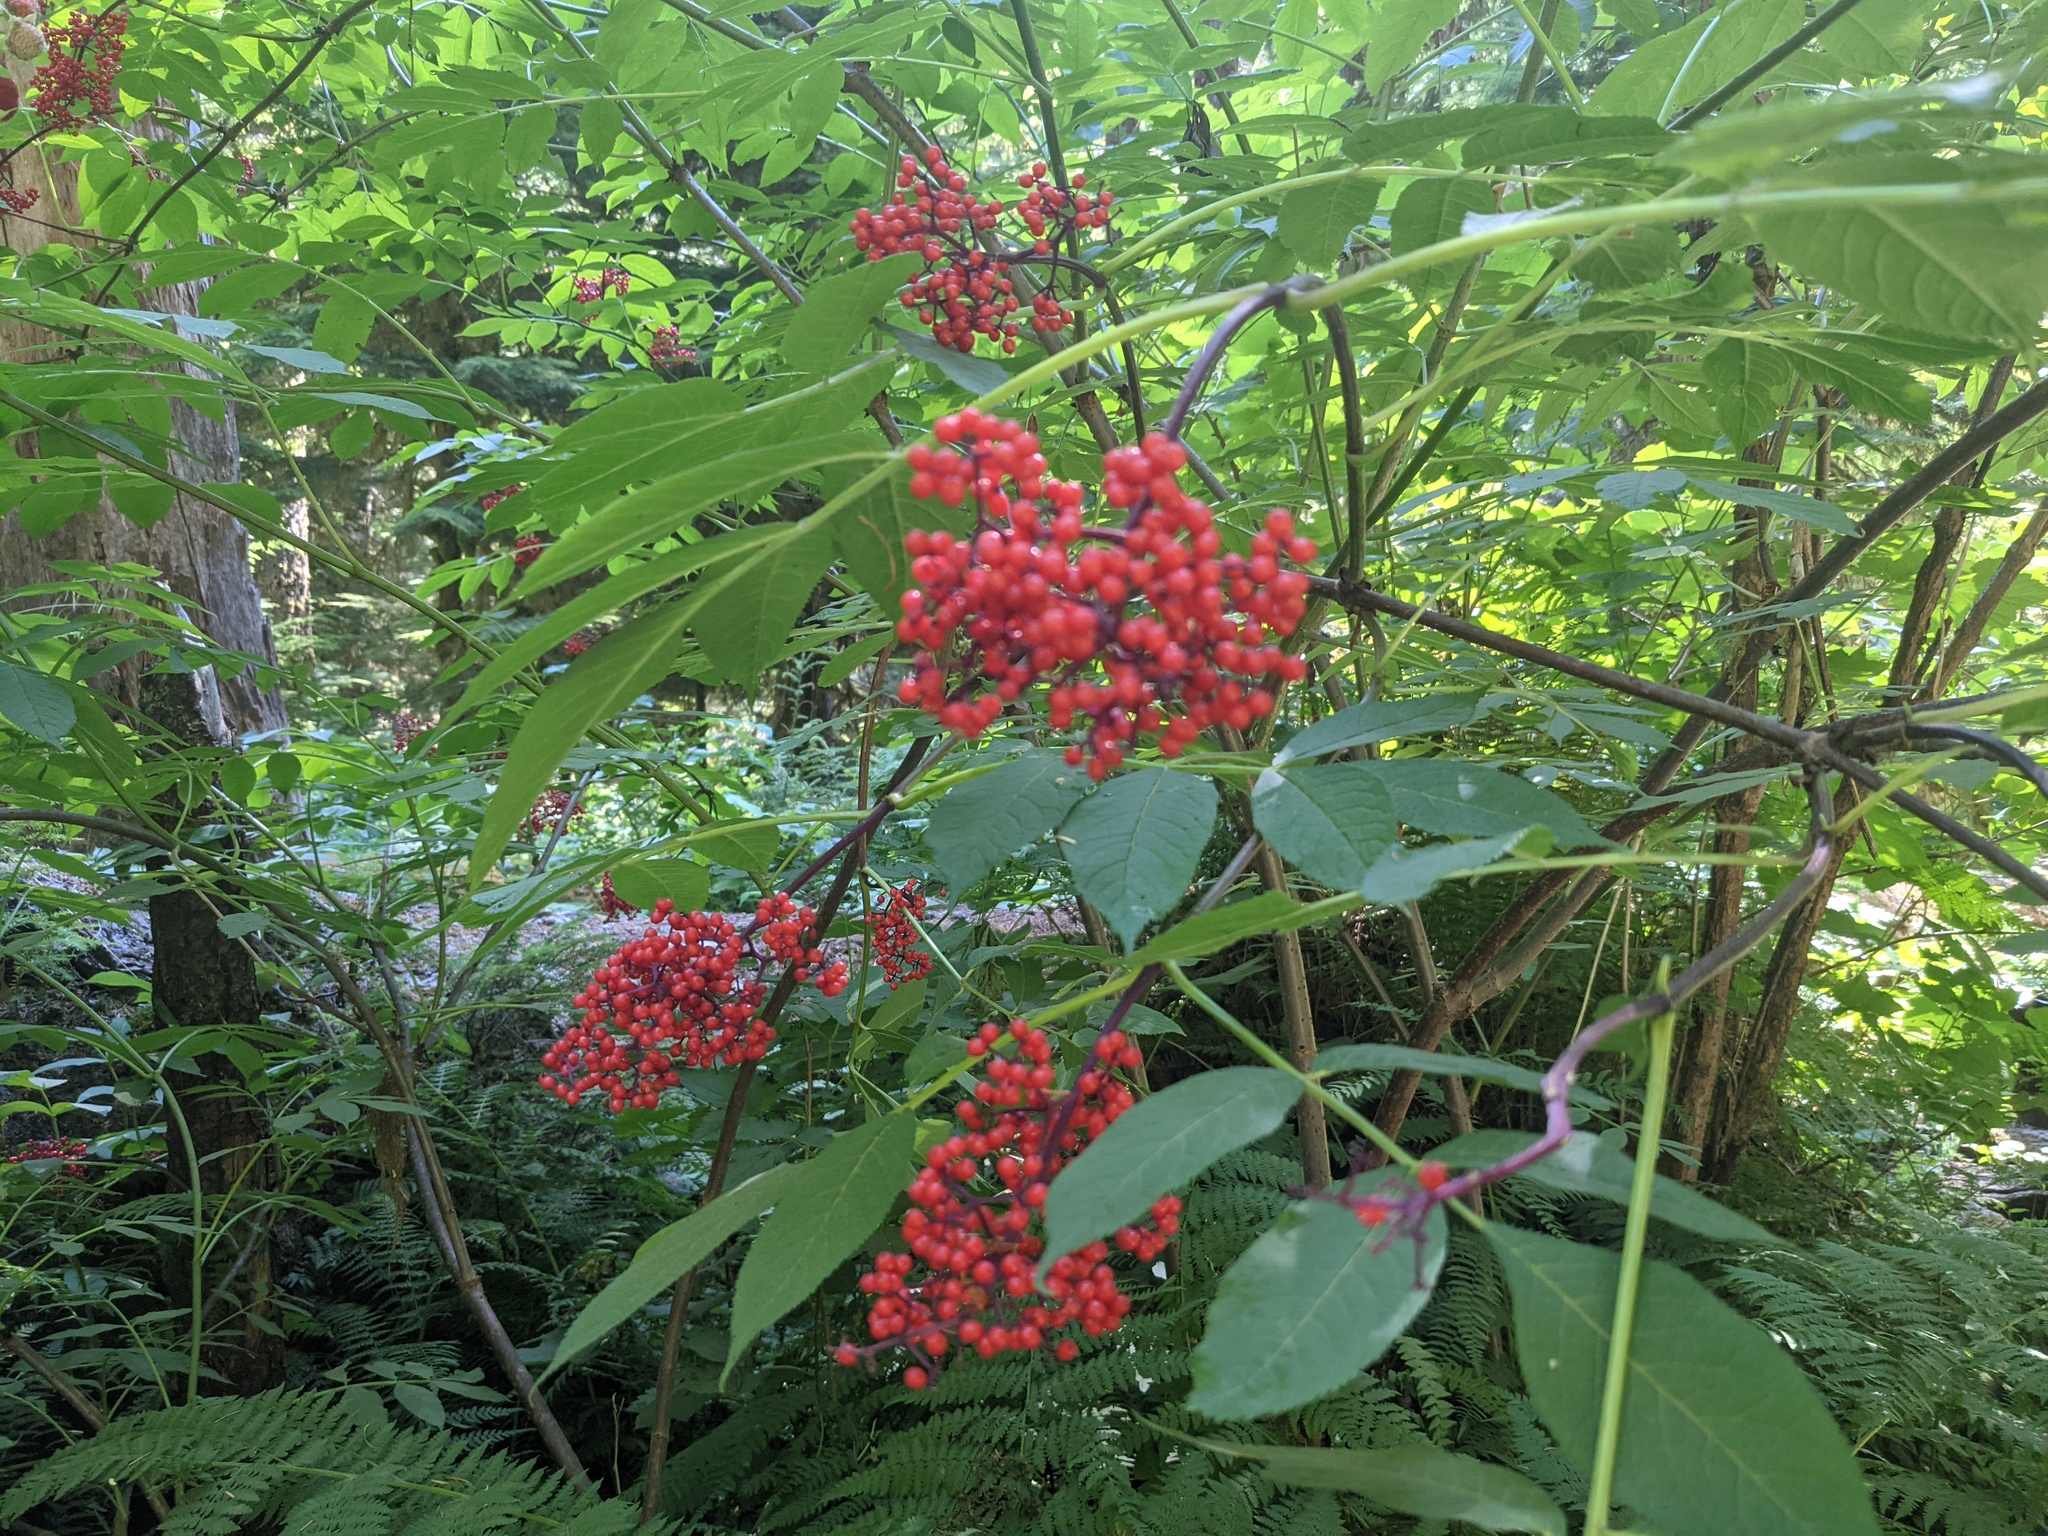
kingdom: Plantae
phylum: Tracheophyta
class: Magnoliopsida
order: Dipsacales
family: Viburnaceae
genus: Sambucus
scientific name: Sambucus racemosa
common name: Red-berried elder
